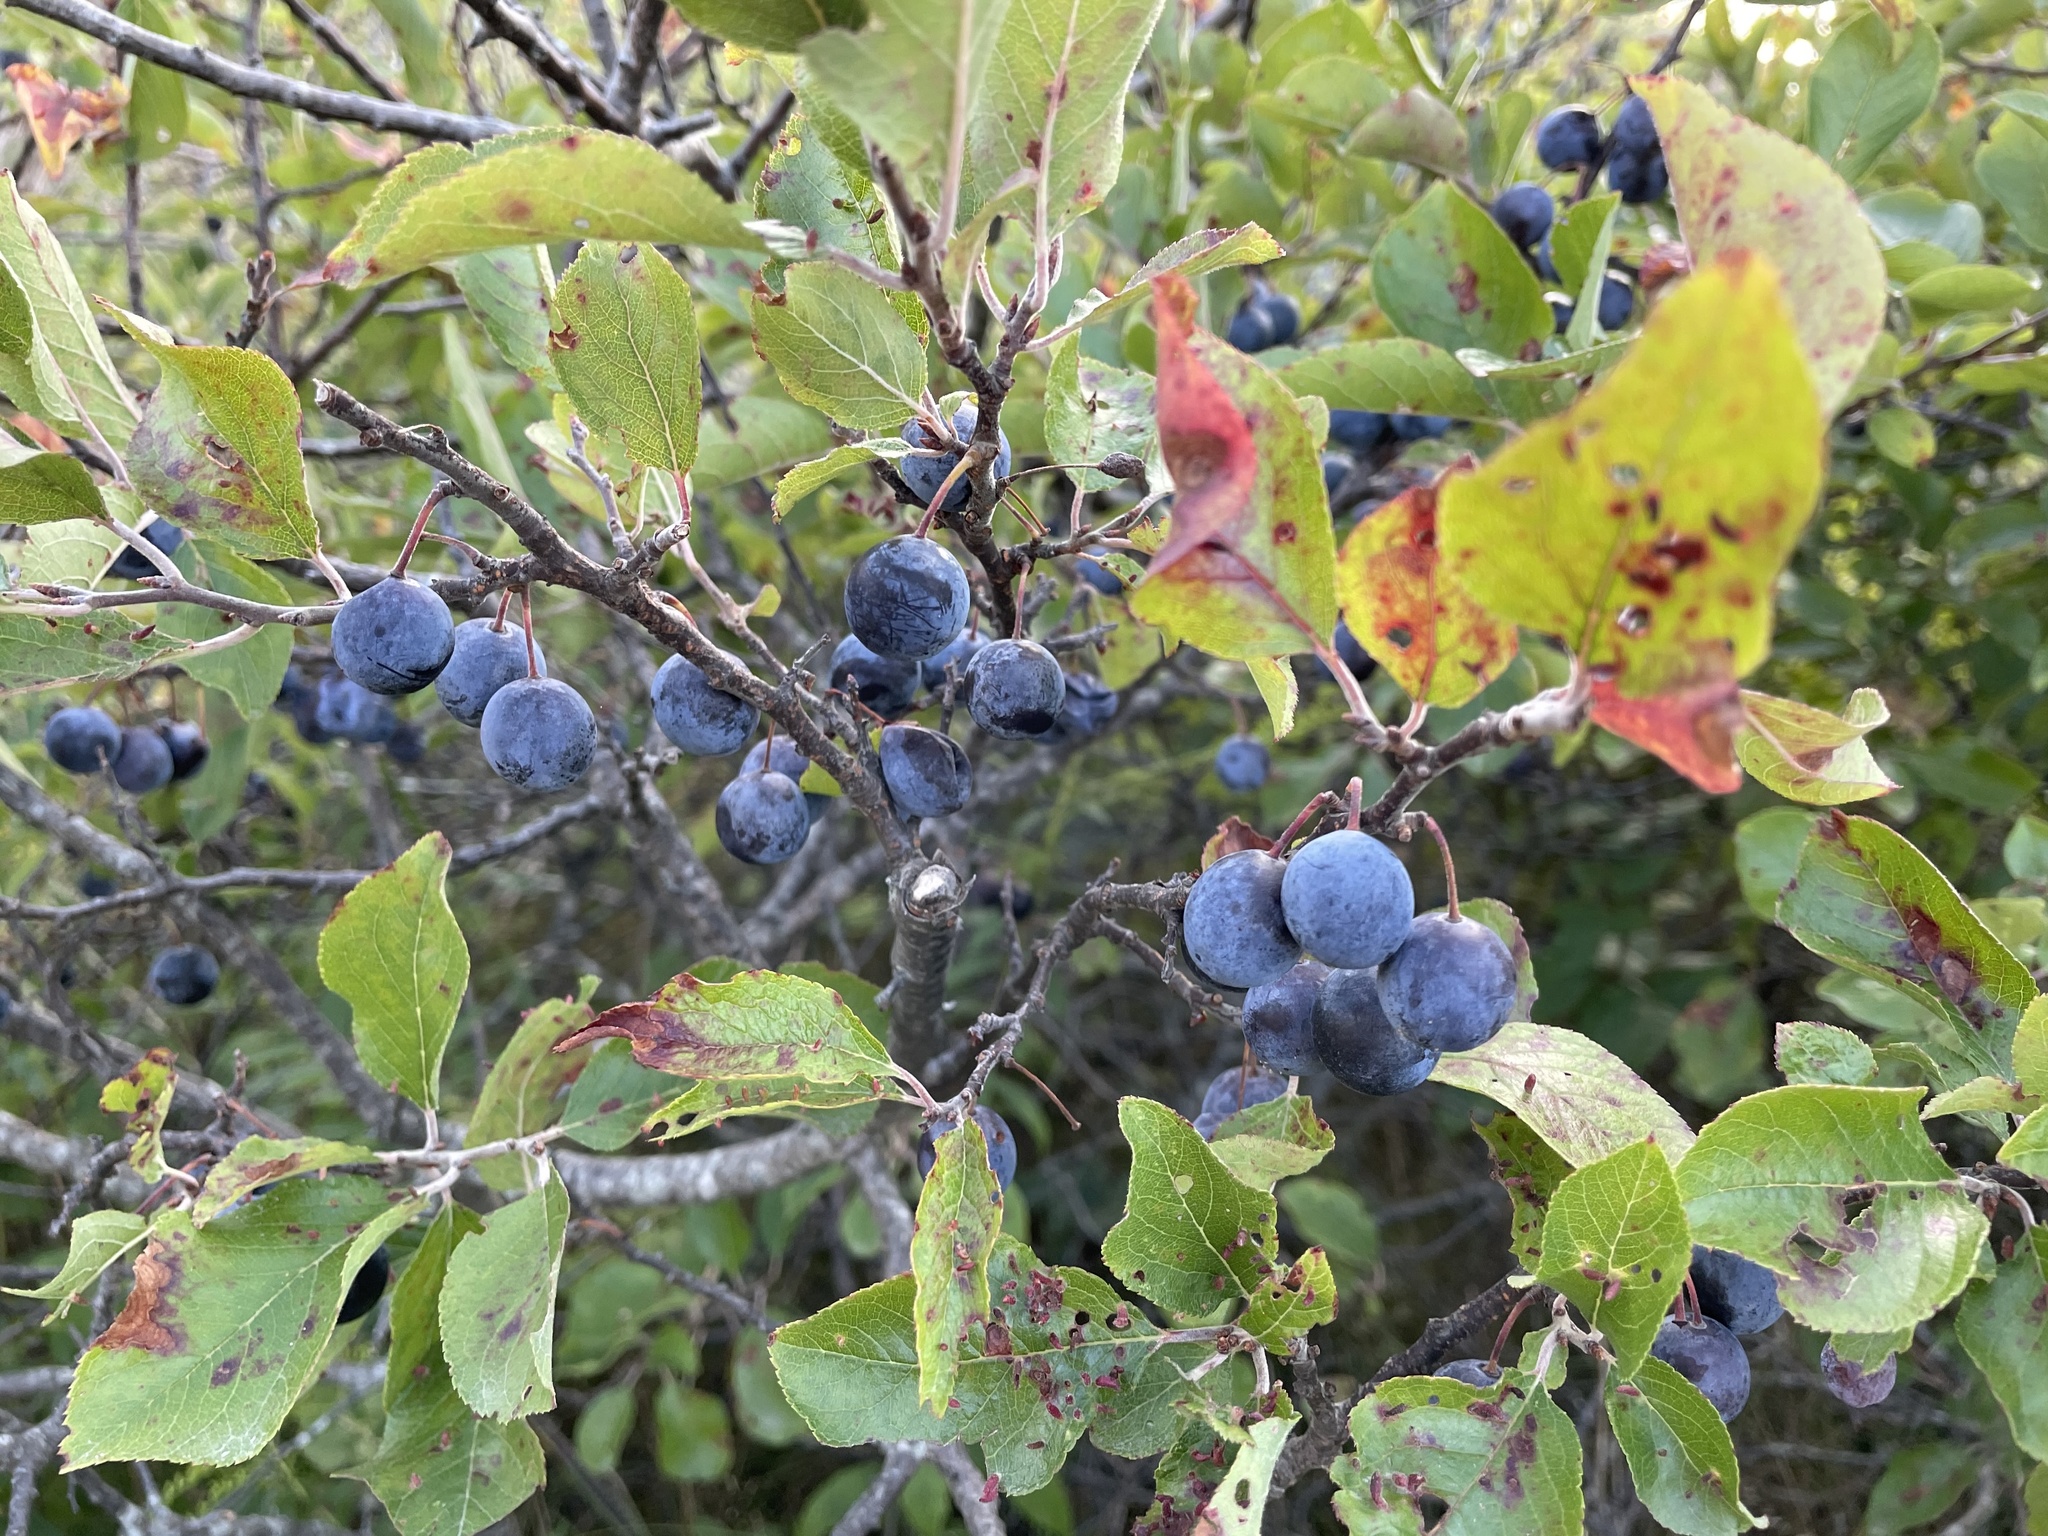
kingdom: Plantae
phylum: Tracheophyta
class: Magnoliopsida
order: Rosales
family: Rosaceae
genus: Prunus
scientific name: Prunus maritima
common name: Beach plum
